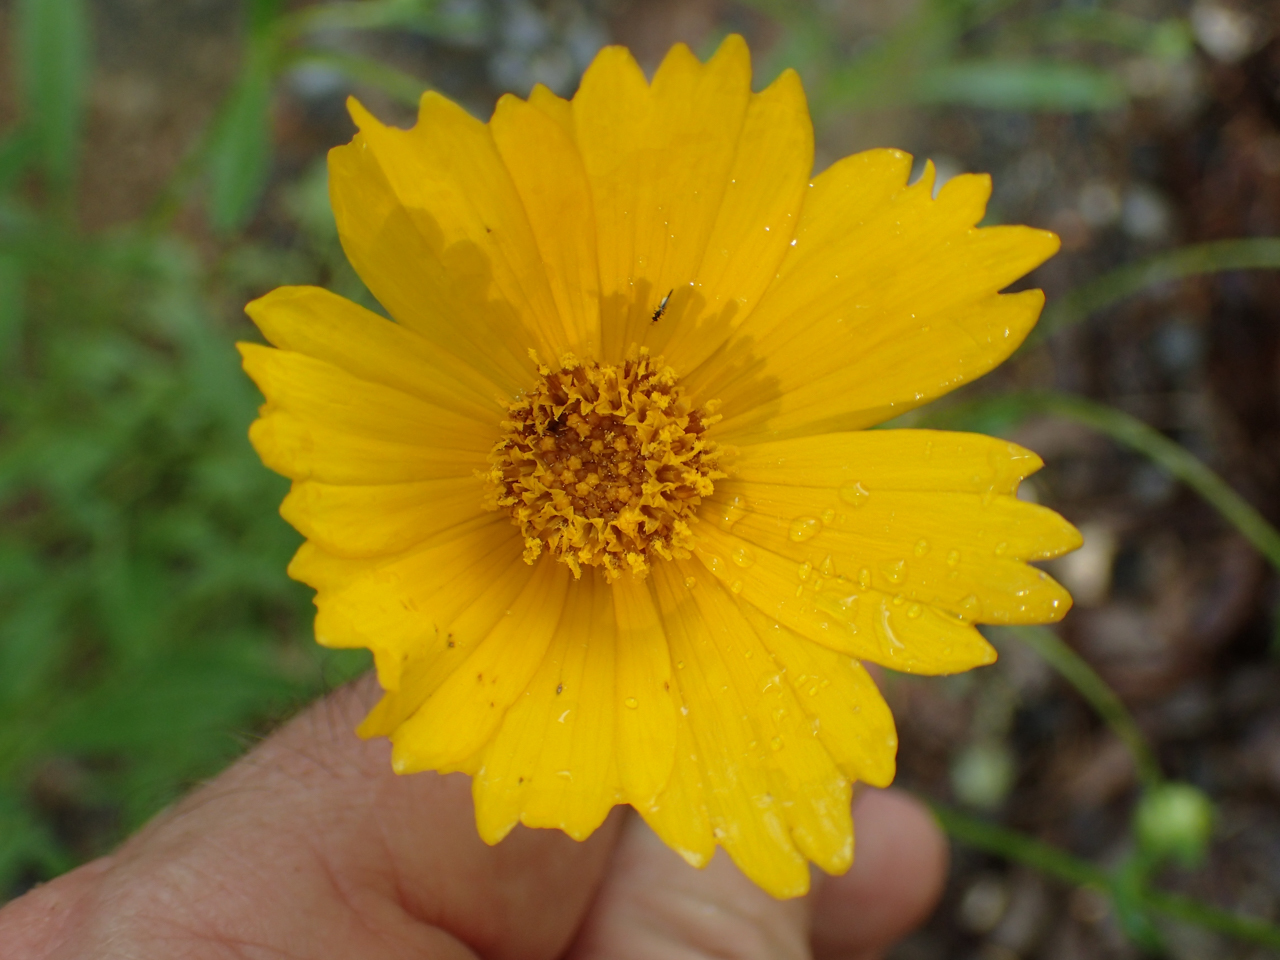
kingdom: Plantae
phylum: Tracheophyta
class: Magnoliopsida
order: Asterales
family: Asteraceae
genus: Coreopsis
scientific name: Coreopsis lanceolata
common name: Garden coreopsis
